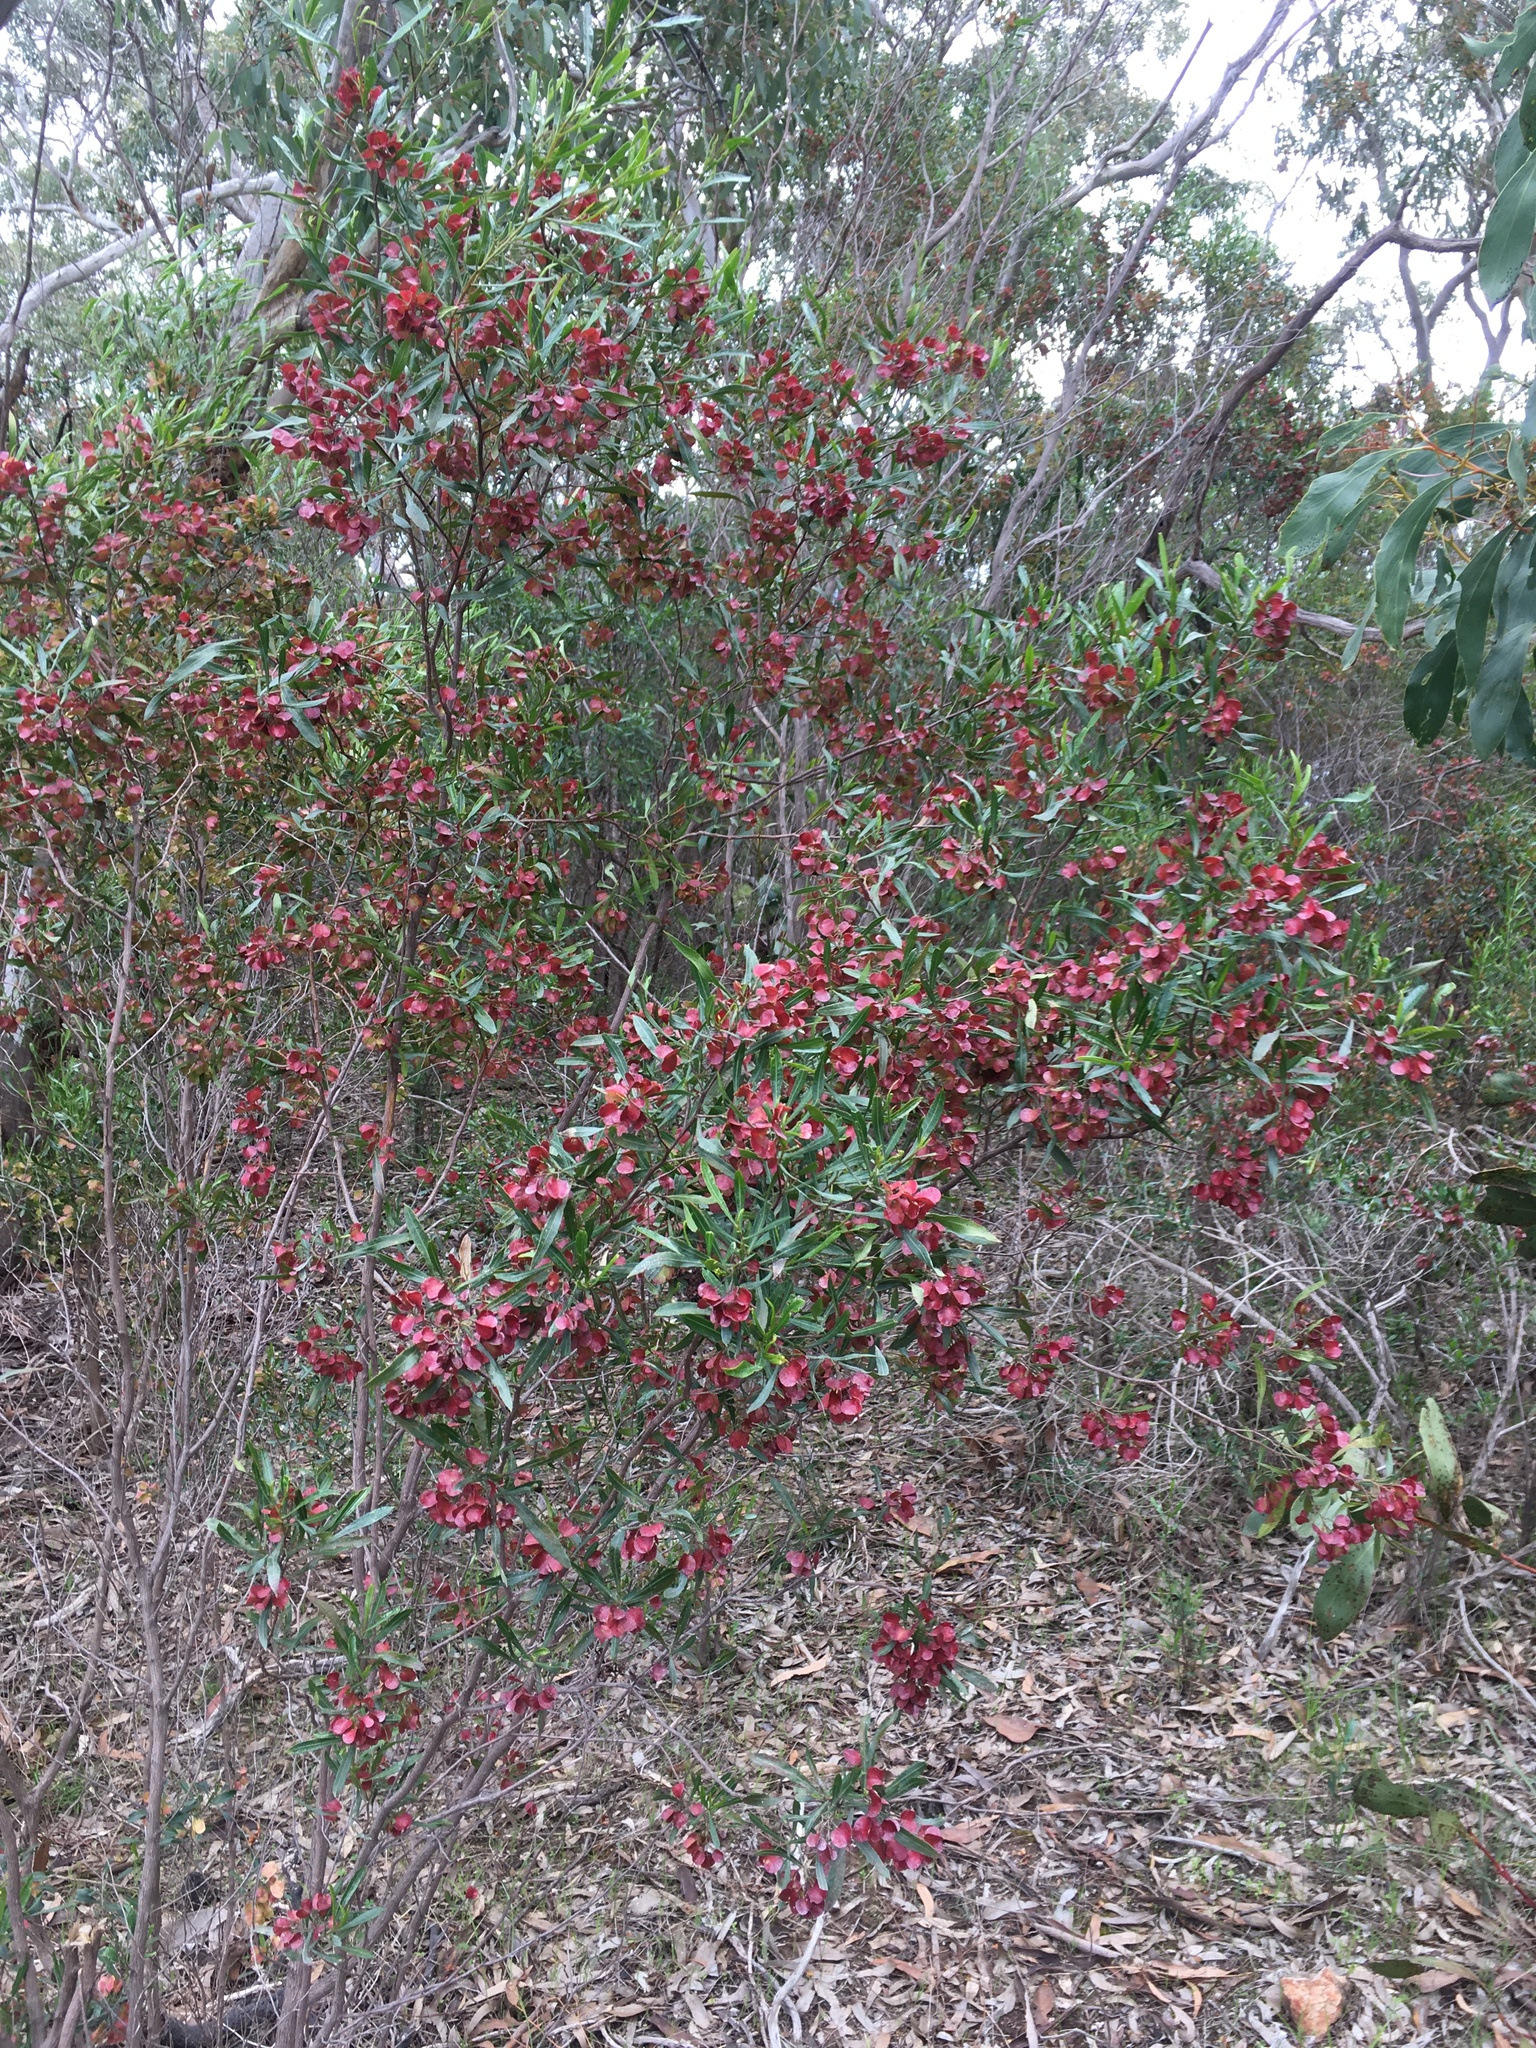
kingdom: Plantae
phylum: Tracheophyta
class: Magnoliopsida
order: Sapindales
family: Sapindaceae
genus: Dodonaea
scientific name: Dodonaea viscosa
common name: Hopbush
